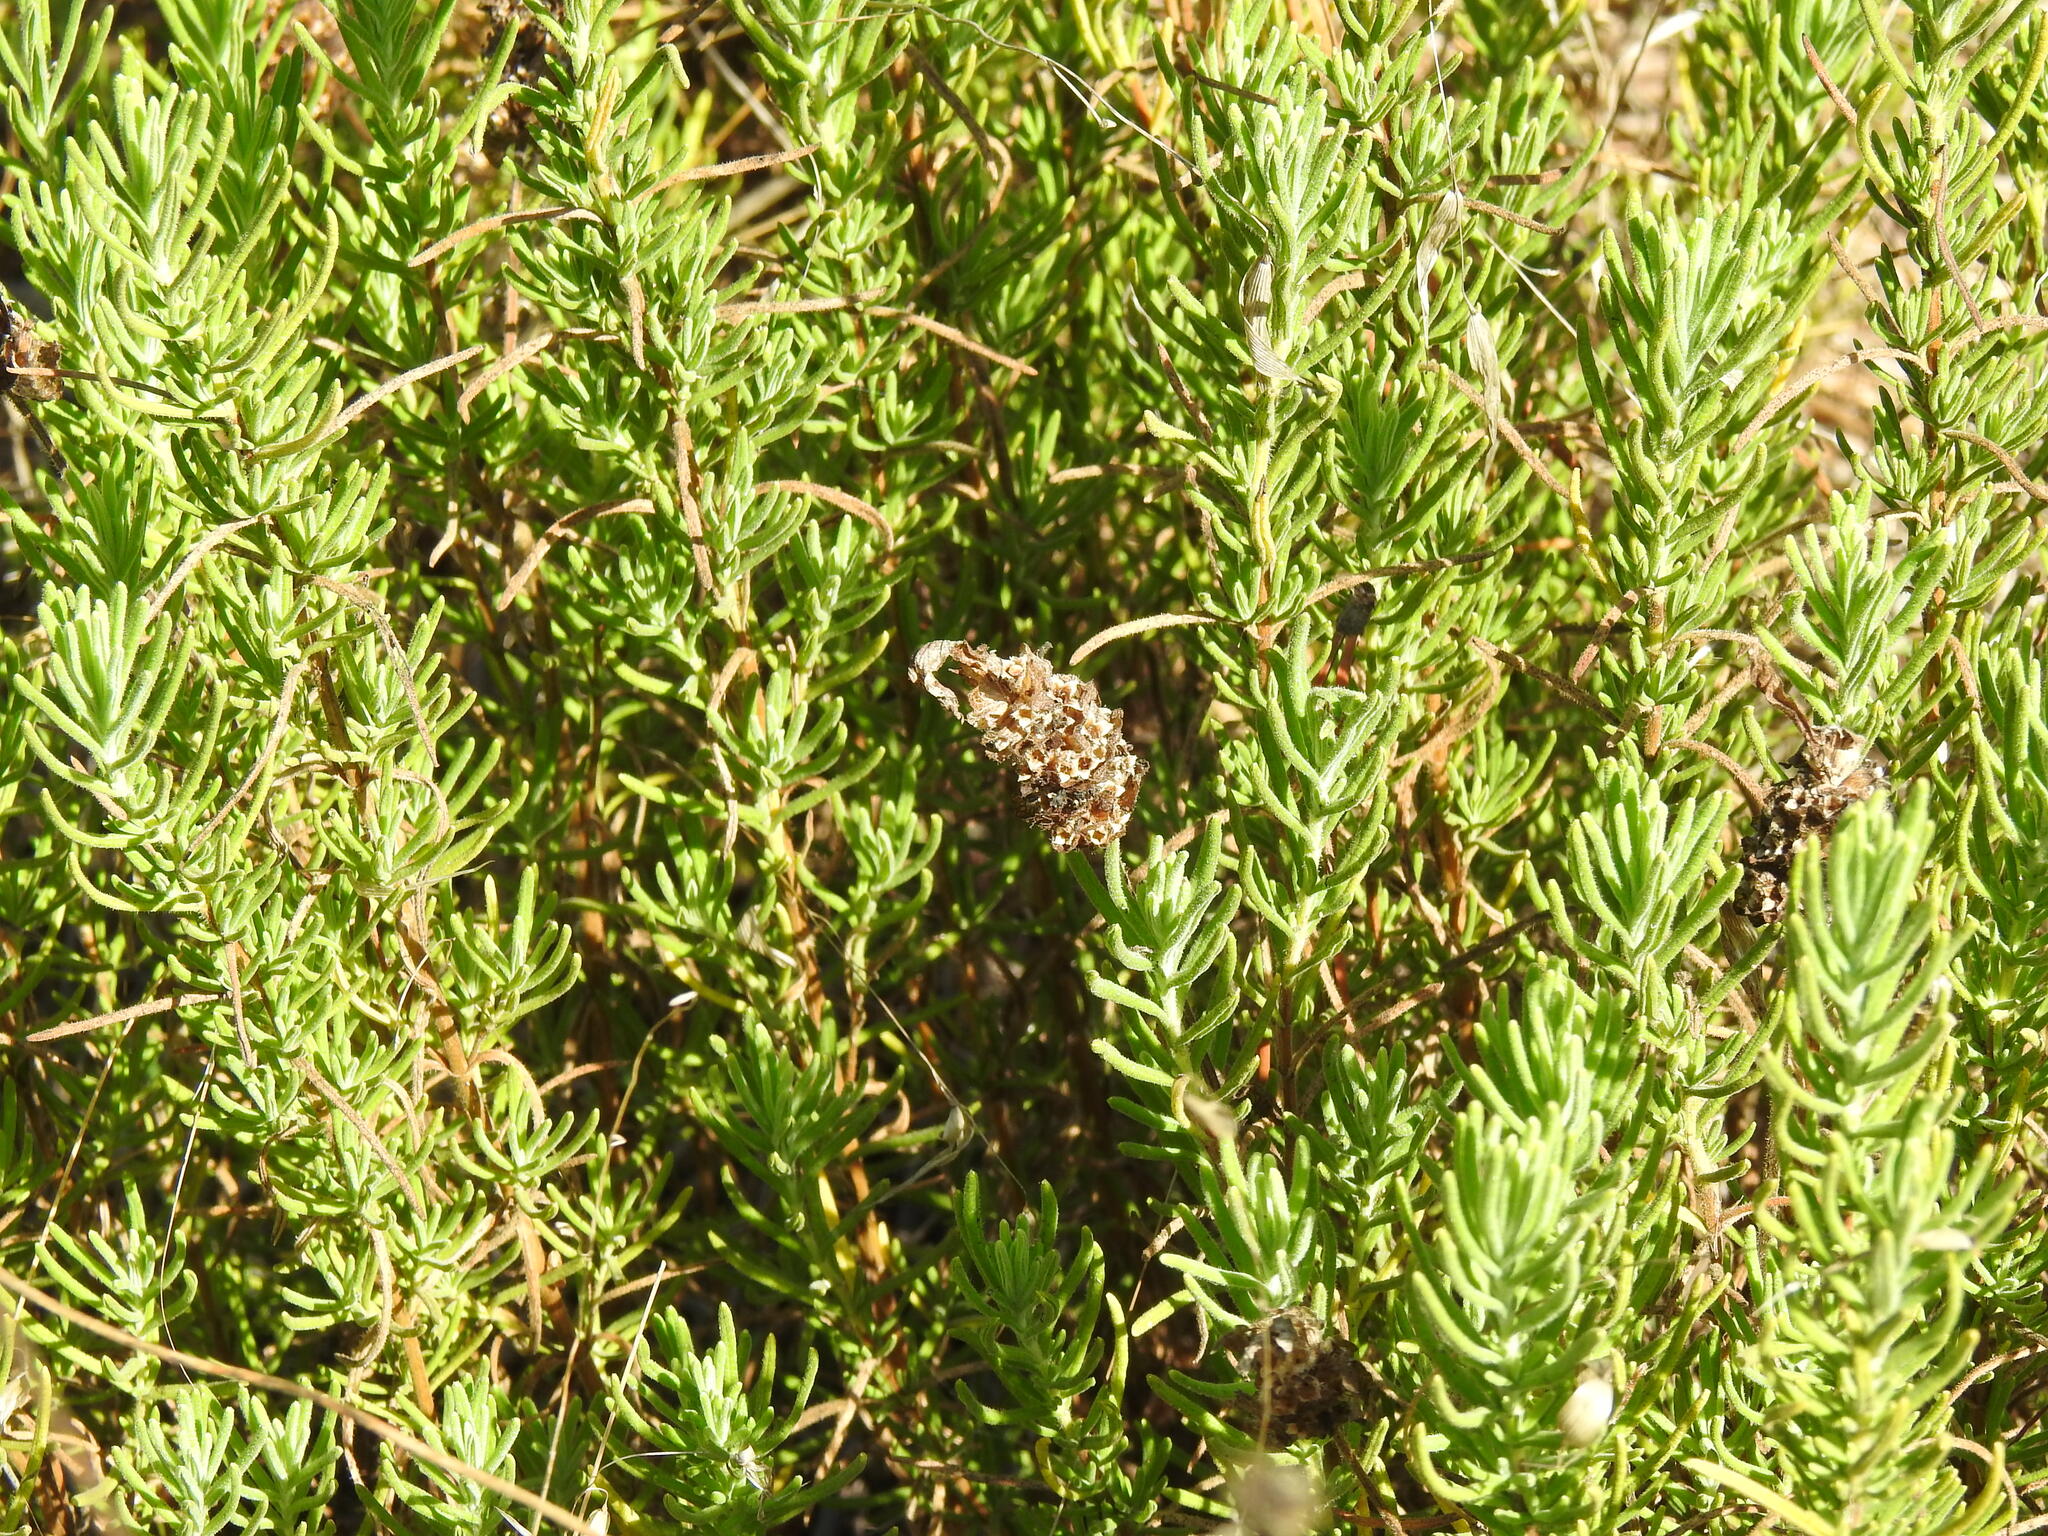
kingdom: Plantae
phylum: Tracheophyta
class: Magnoliopsida
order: Lamiales
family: Lamiaceae
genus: Lavandula
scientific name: Lavandula viridis
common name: Green spanish lavender
